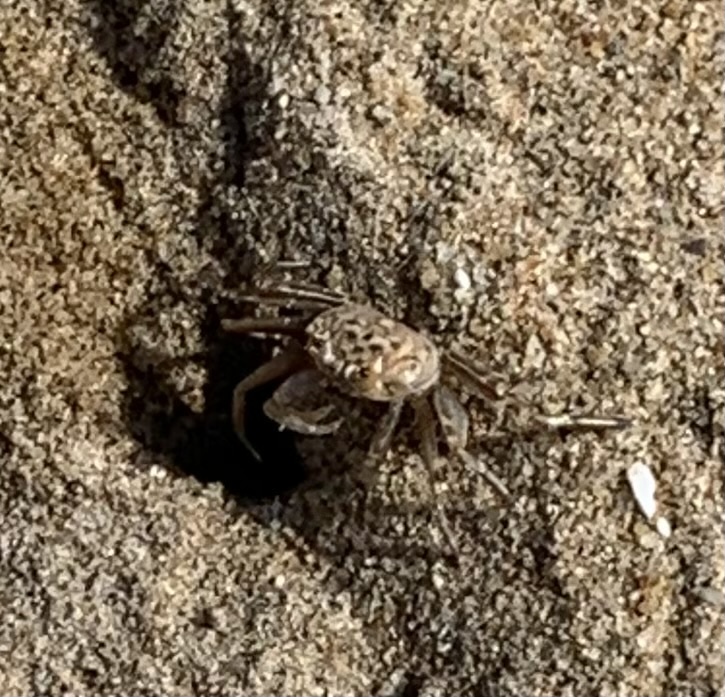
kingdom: Animalia
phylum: Arthropoda
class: Malacostraca
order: Decapoda
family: Ocypodidae
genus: Ocypode
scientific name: Ocypode pallidula
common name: Pallid ghost crab
